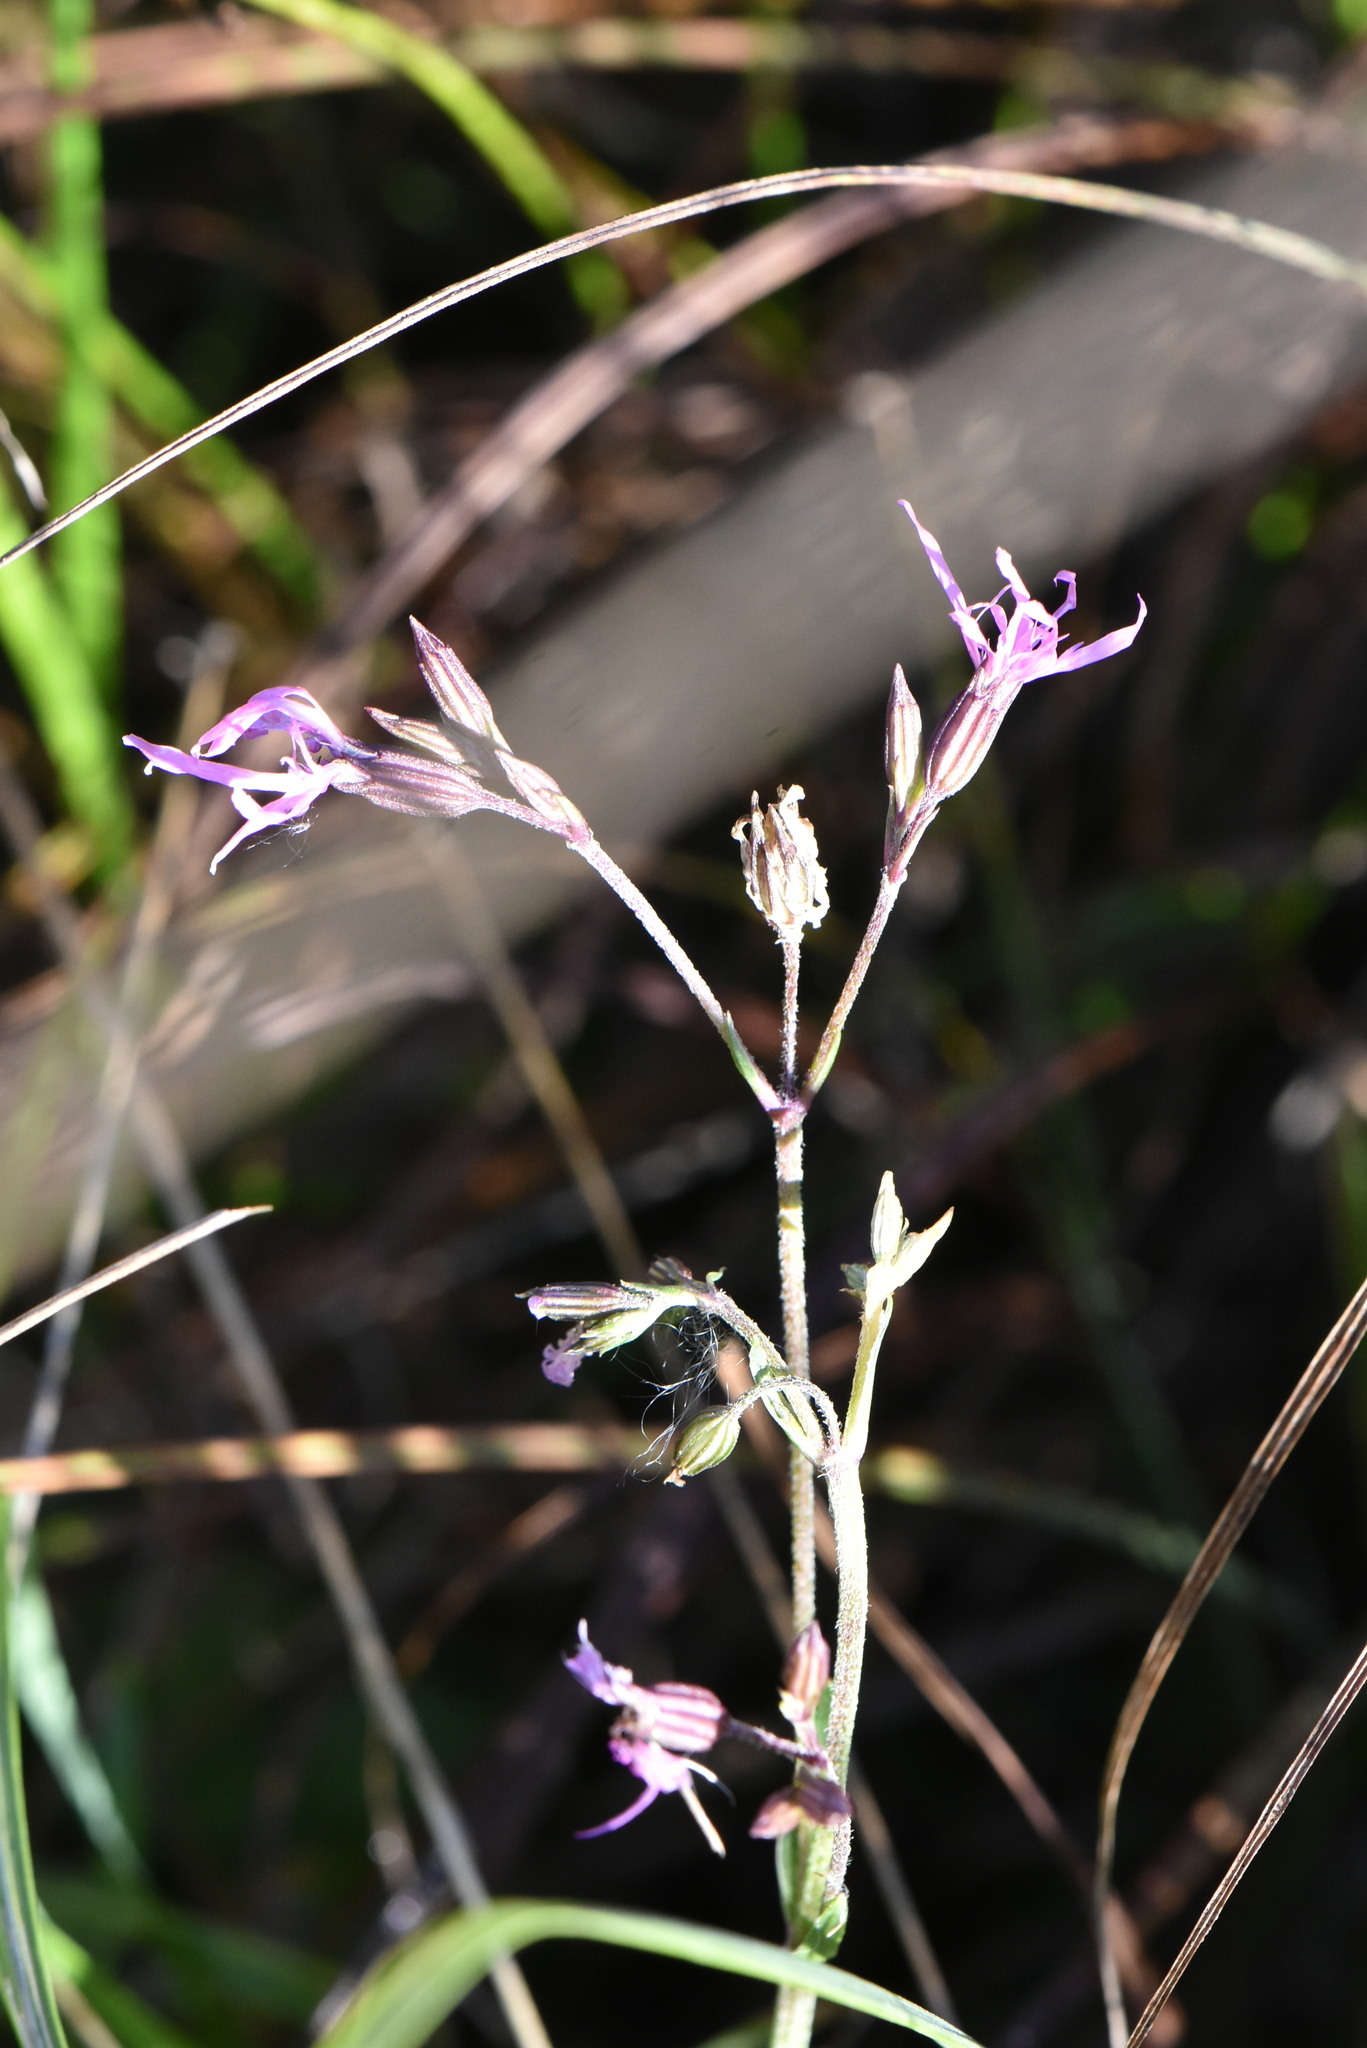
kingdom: Plantae
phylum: Tracheophyta
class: Magnoliopsida
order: Caryophyllales
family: Caryophyllaceae
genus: Silene
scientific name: Silene flos-cuculi
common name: Ragged-robin
